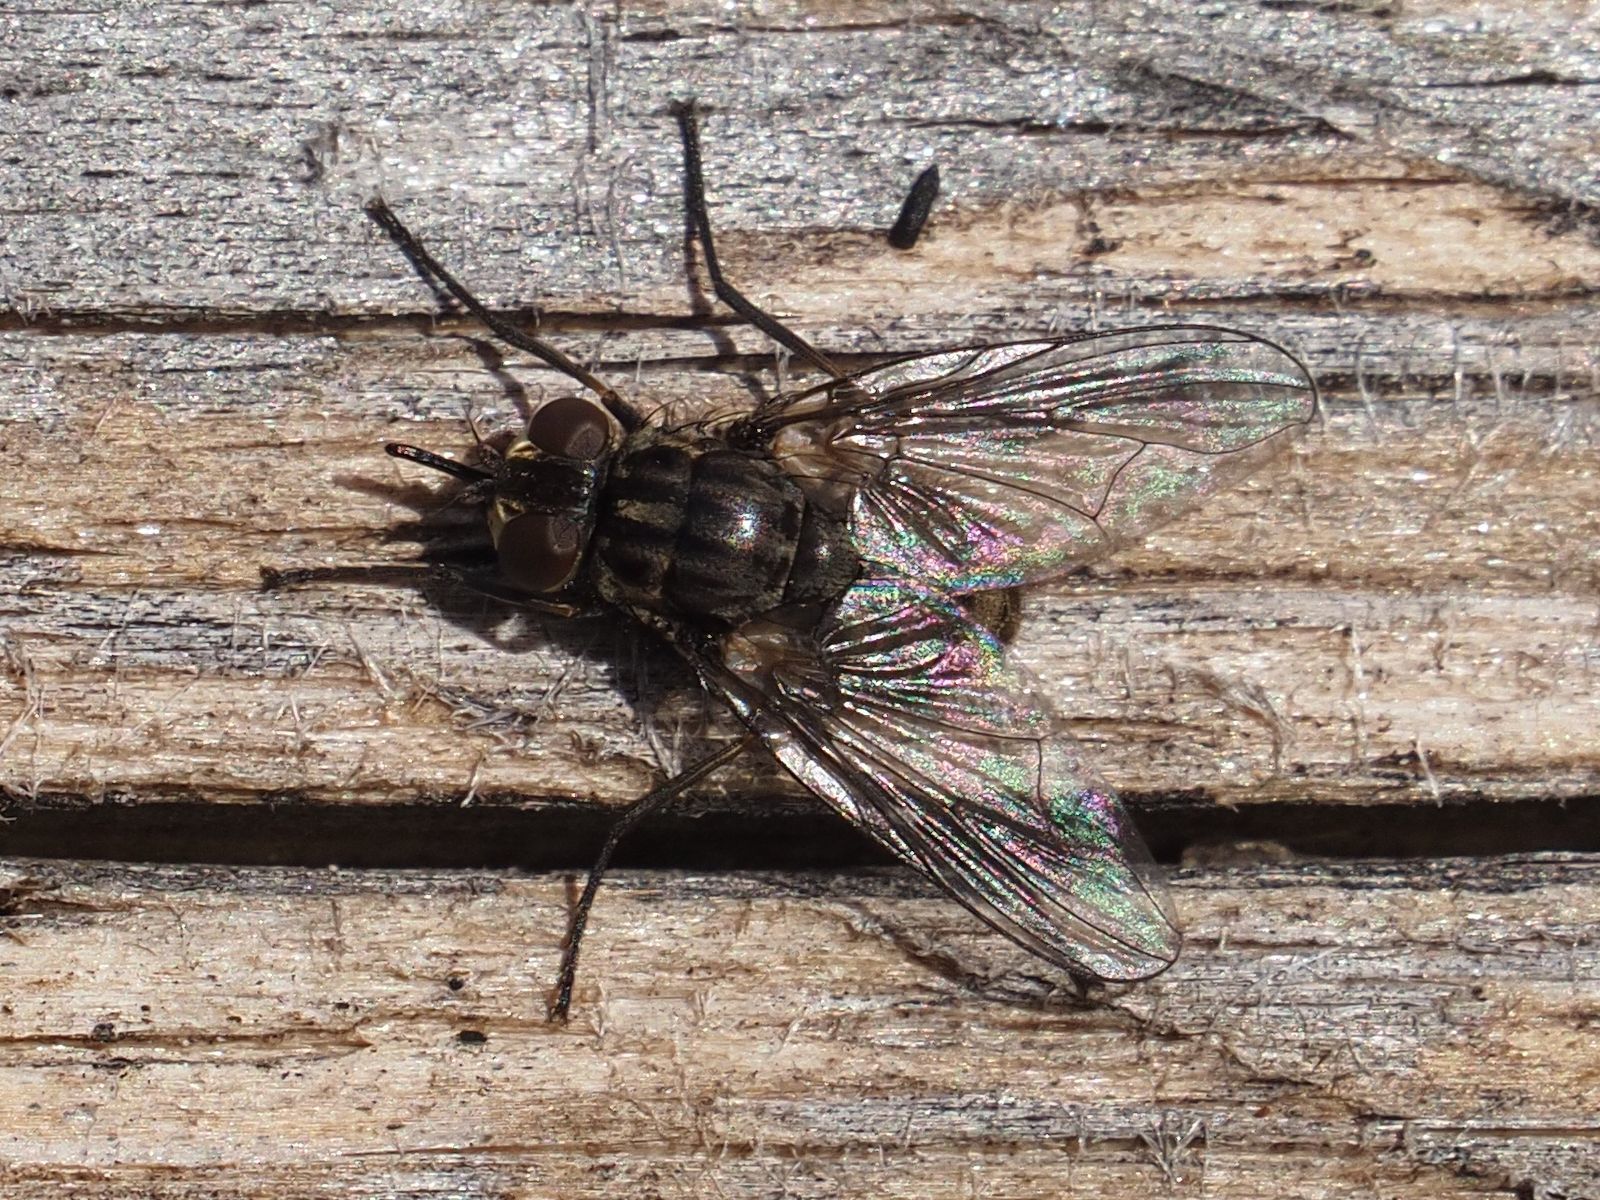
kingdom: Animalia
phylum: Arthropoda
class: Insecta
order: Diptera
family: Muscidae
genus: Stomoxys
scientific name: Stomoxys calcitrans
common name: Stable fly
